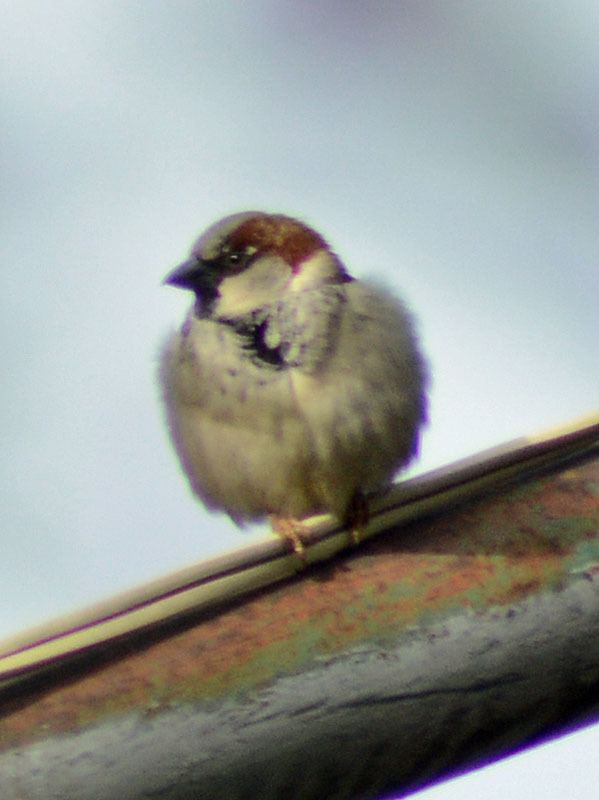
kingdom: Animalia
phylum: Chordata
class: Aves
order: Passeriformes
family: Passeridae
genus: Passer
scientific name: Passer domesticus
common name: House sparrow
